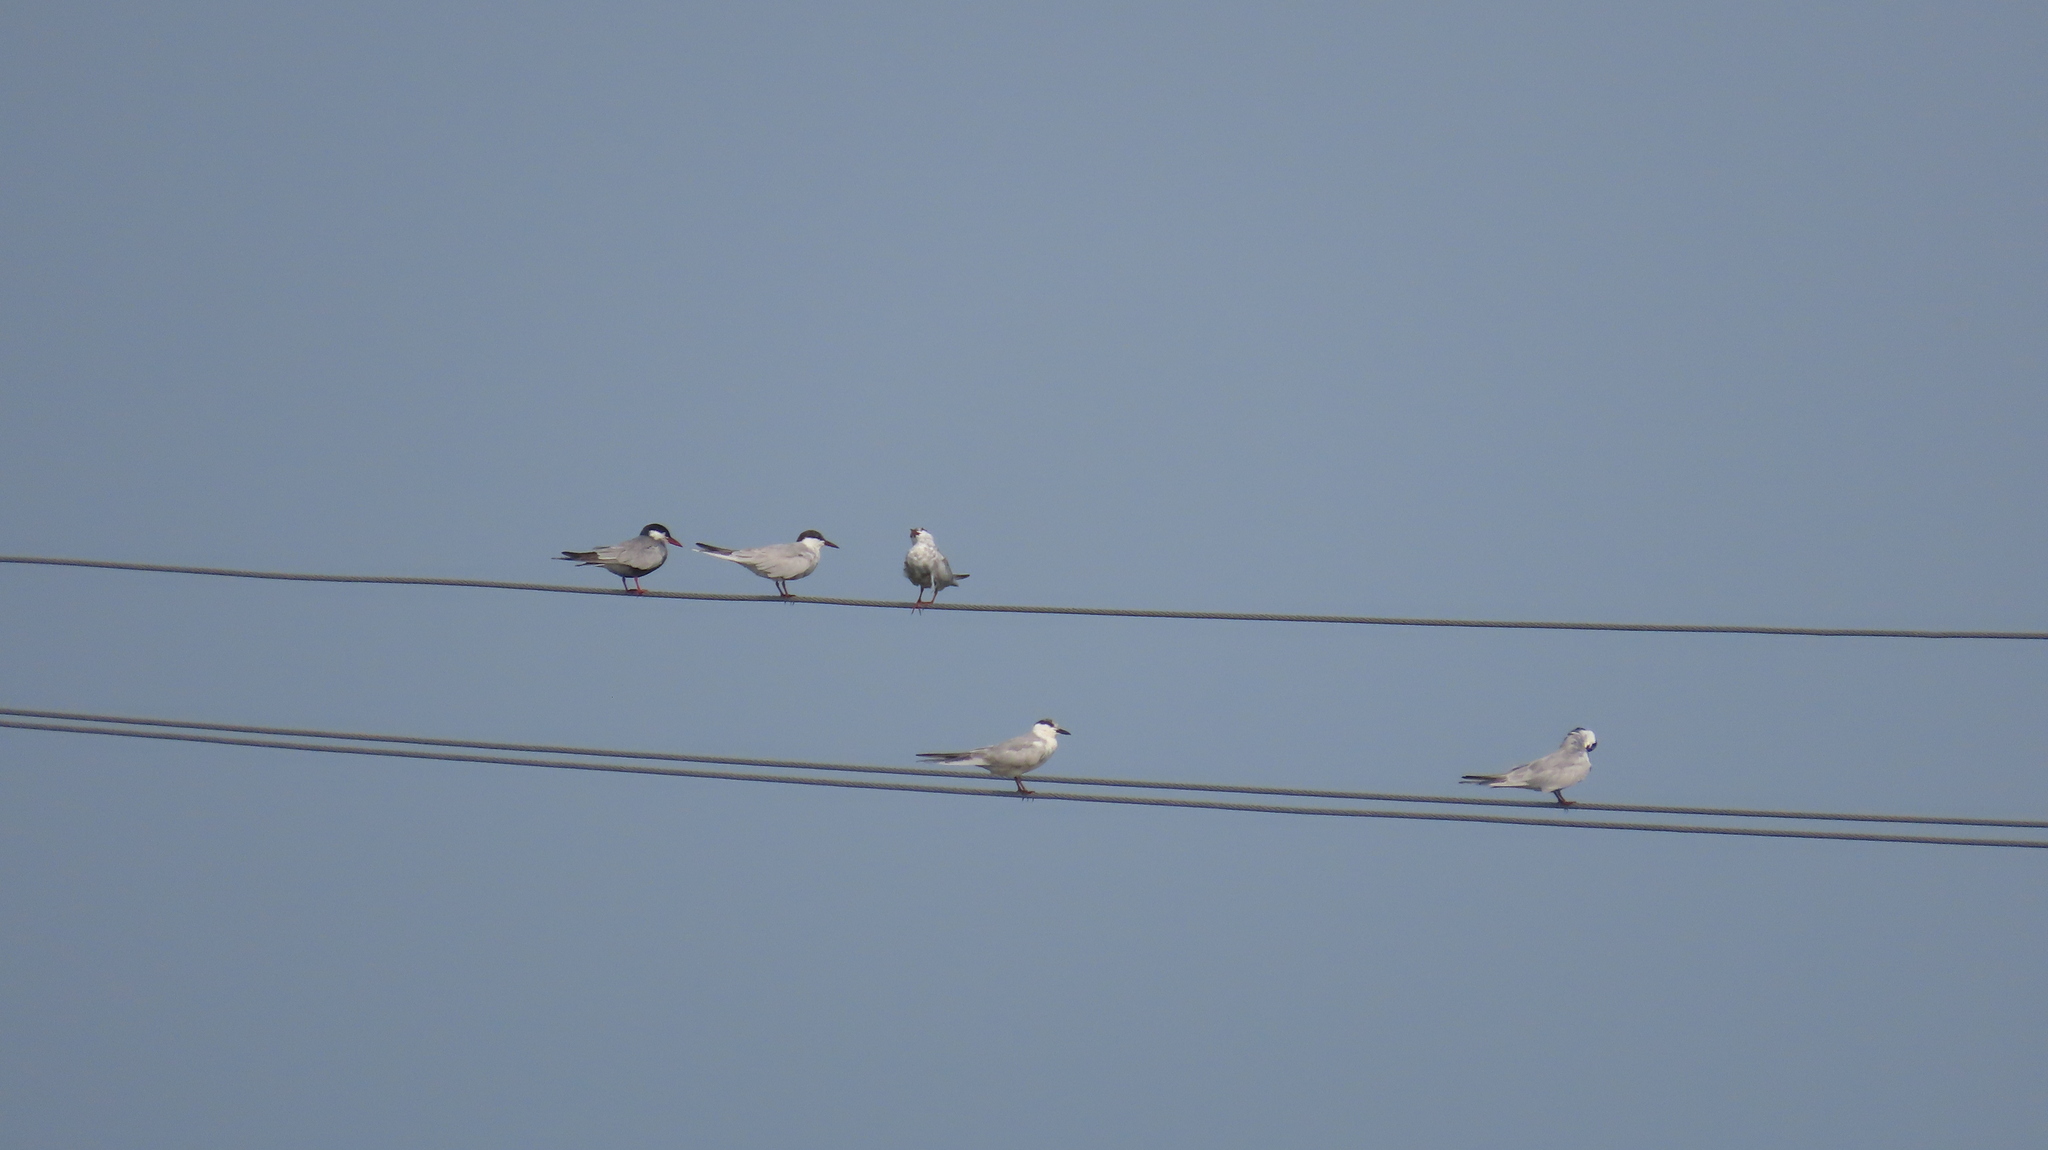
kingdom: Animalia
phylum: Chordata
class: Aves
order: Charadriiformes
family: Laridae
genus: Chlidonias
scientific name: Chlidonias hybrida
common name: Whiskered tern
